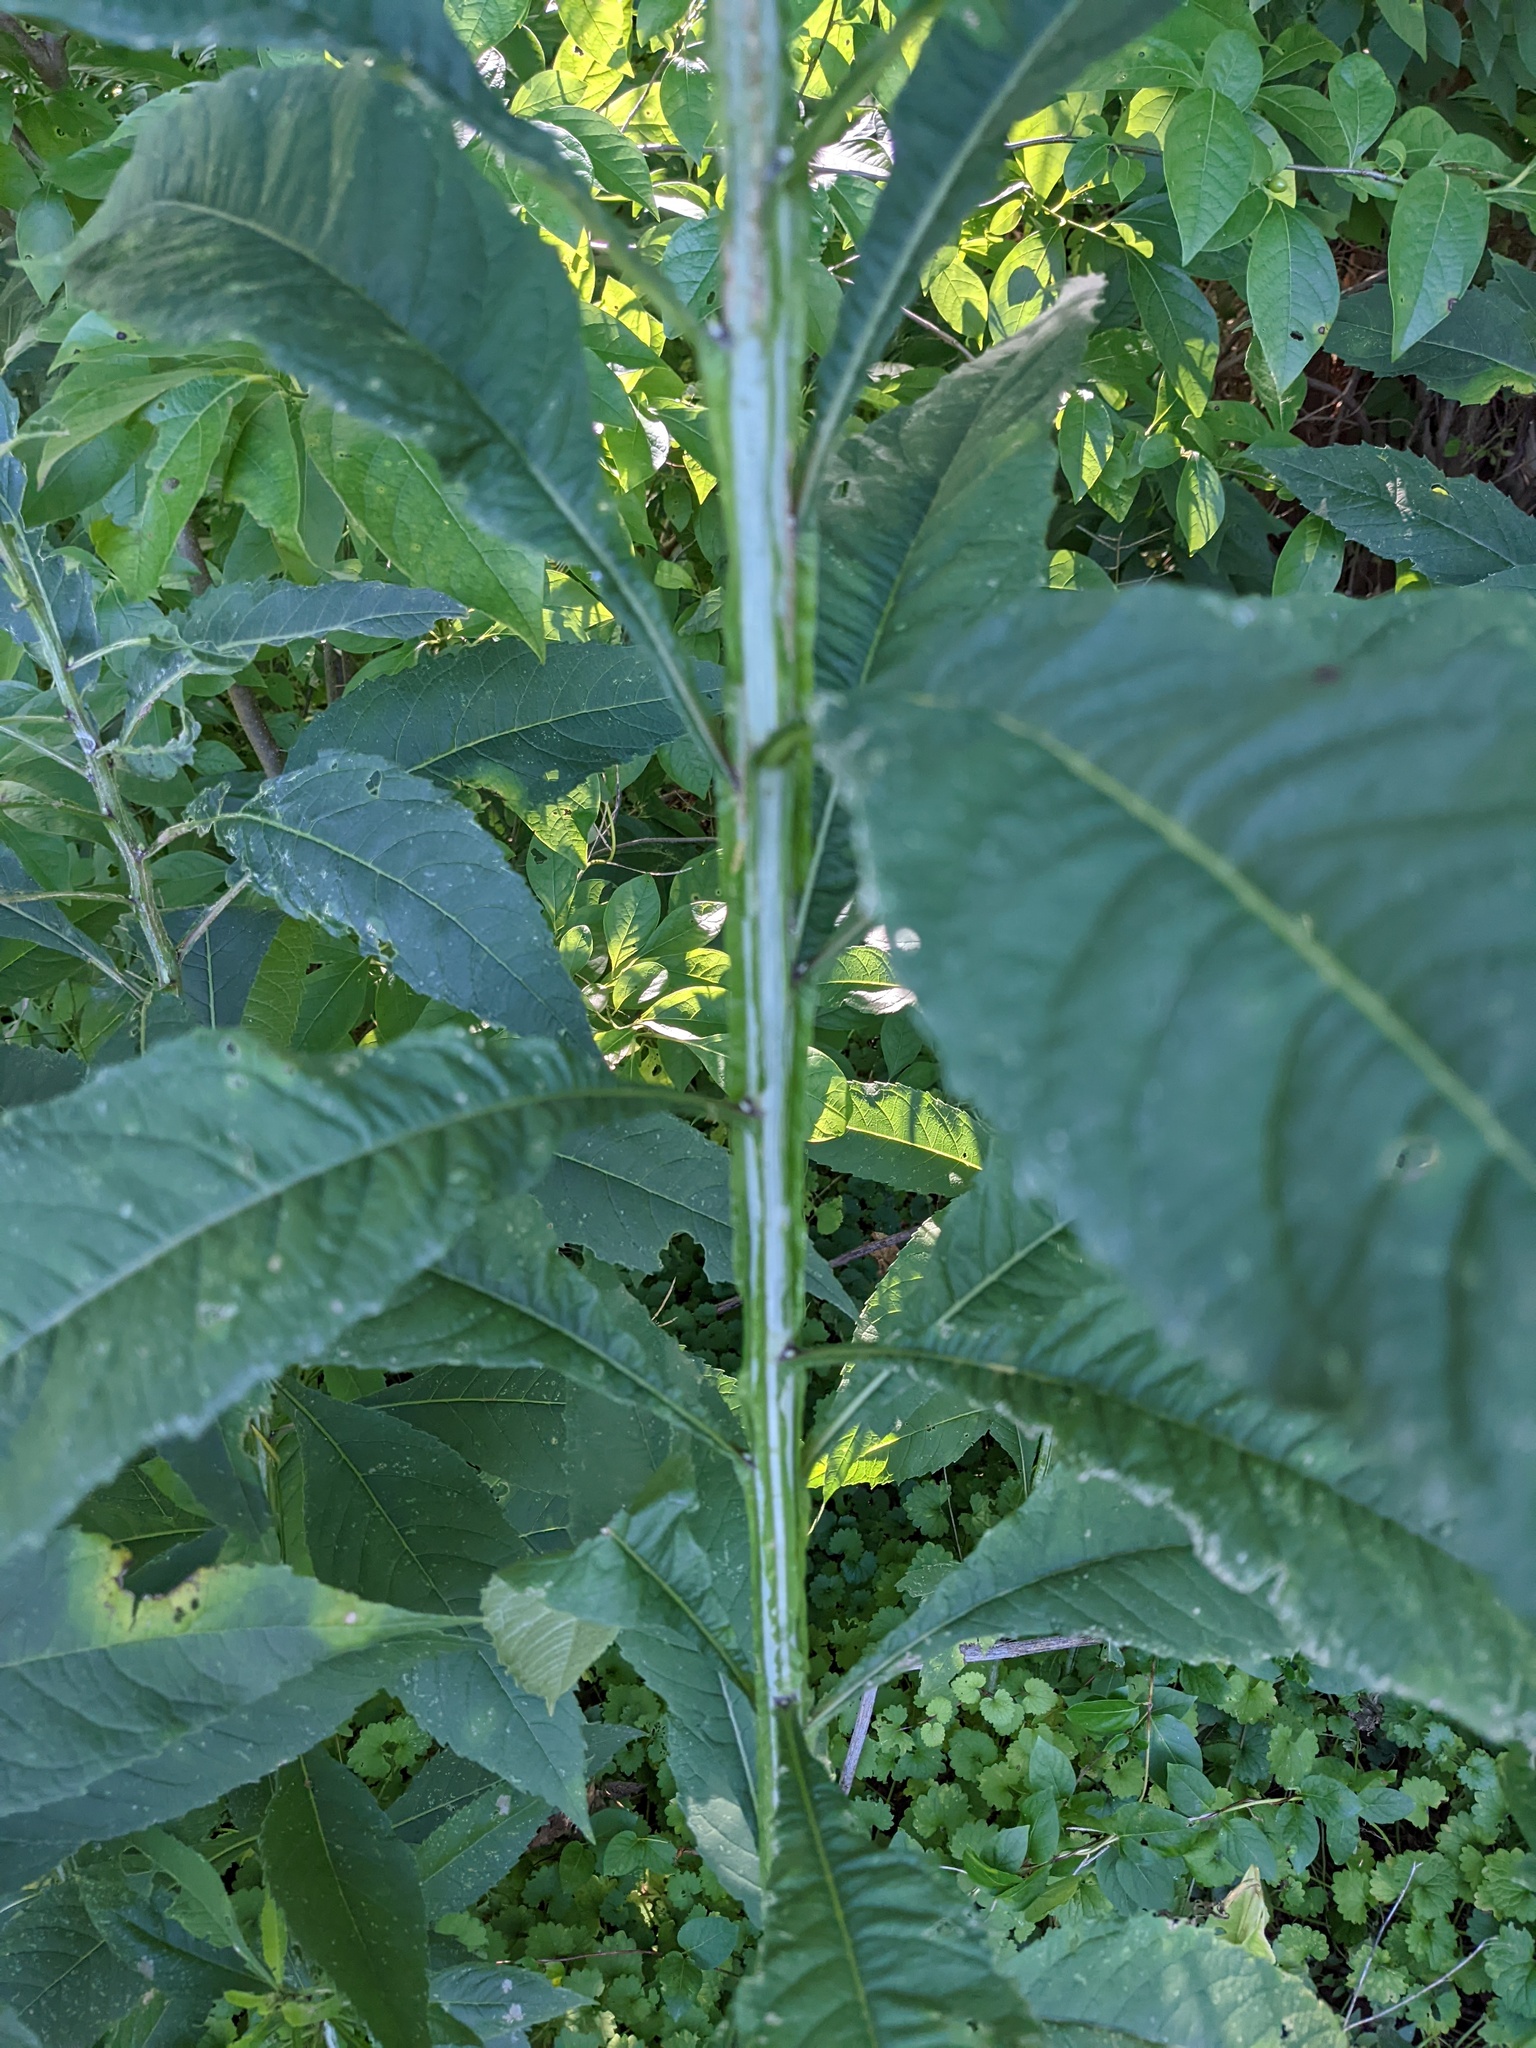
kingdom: Plantae
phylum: Tracheophyta
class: Magnoliopsida
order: Asterales
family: Asteraceae
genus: Verbesina
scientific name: Verbesina alternifolia
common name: Wingstem
